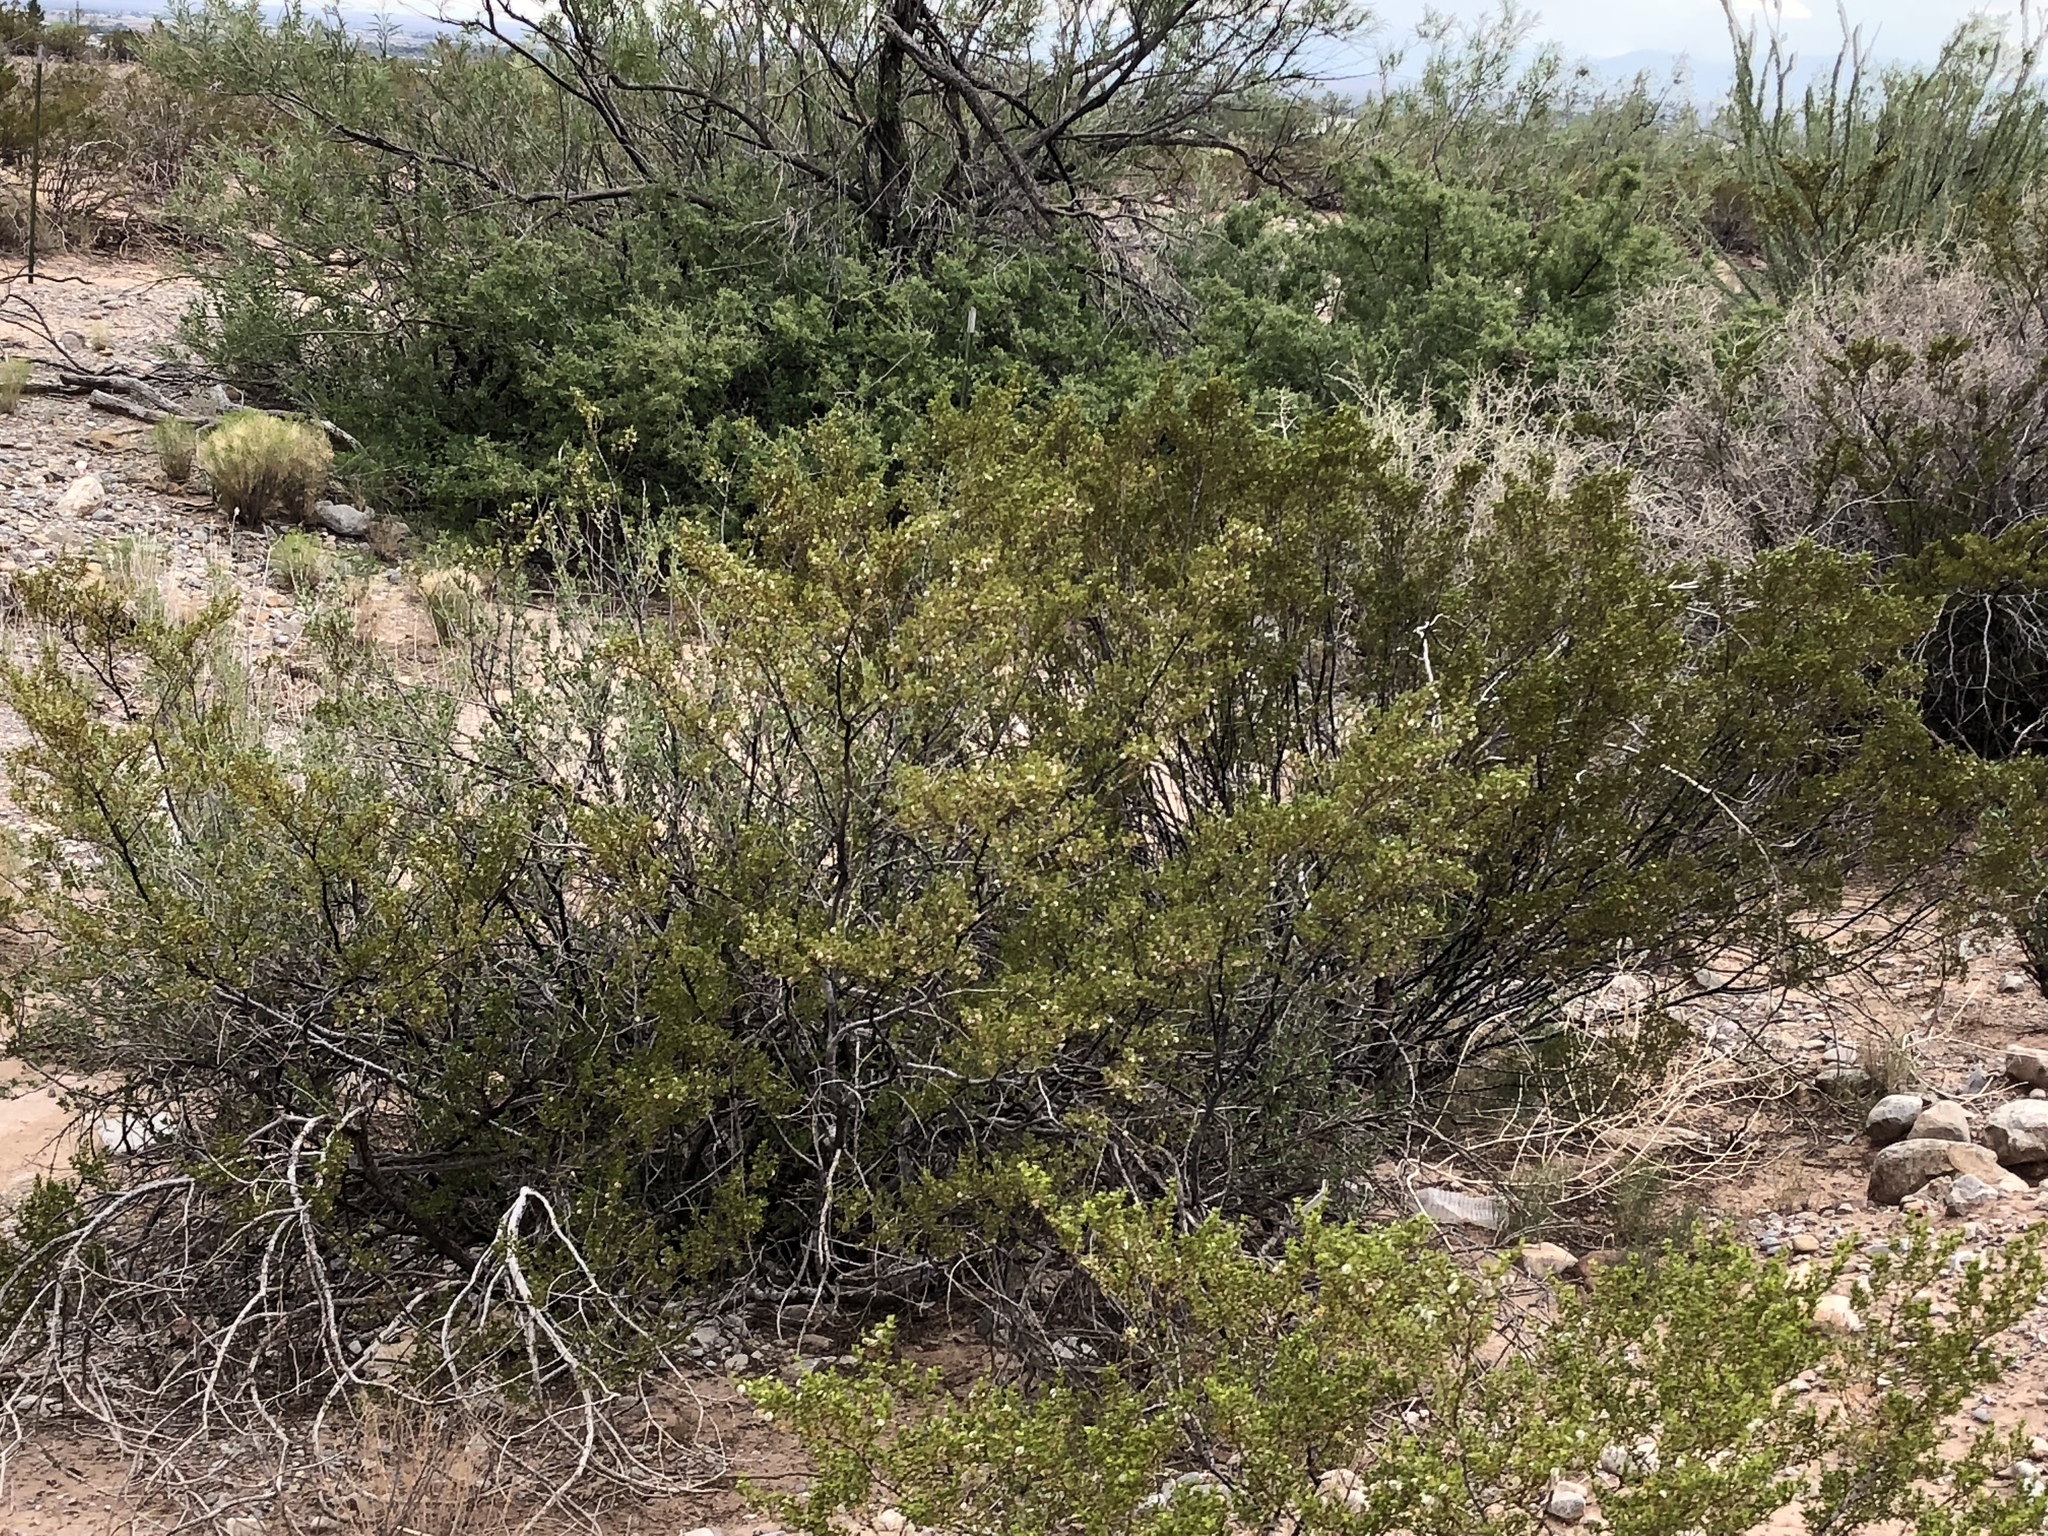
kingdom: Plantae
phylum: Tracheophyta
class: Magnoliopsida
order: Zygophyllales
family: Zygophyllaceae
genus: Larrea
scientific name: Larrea tridentata
